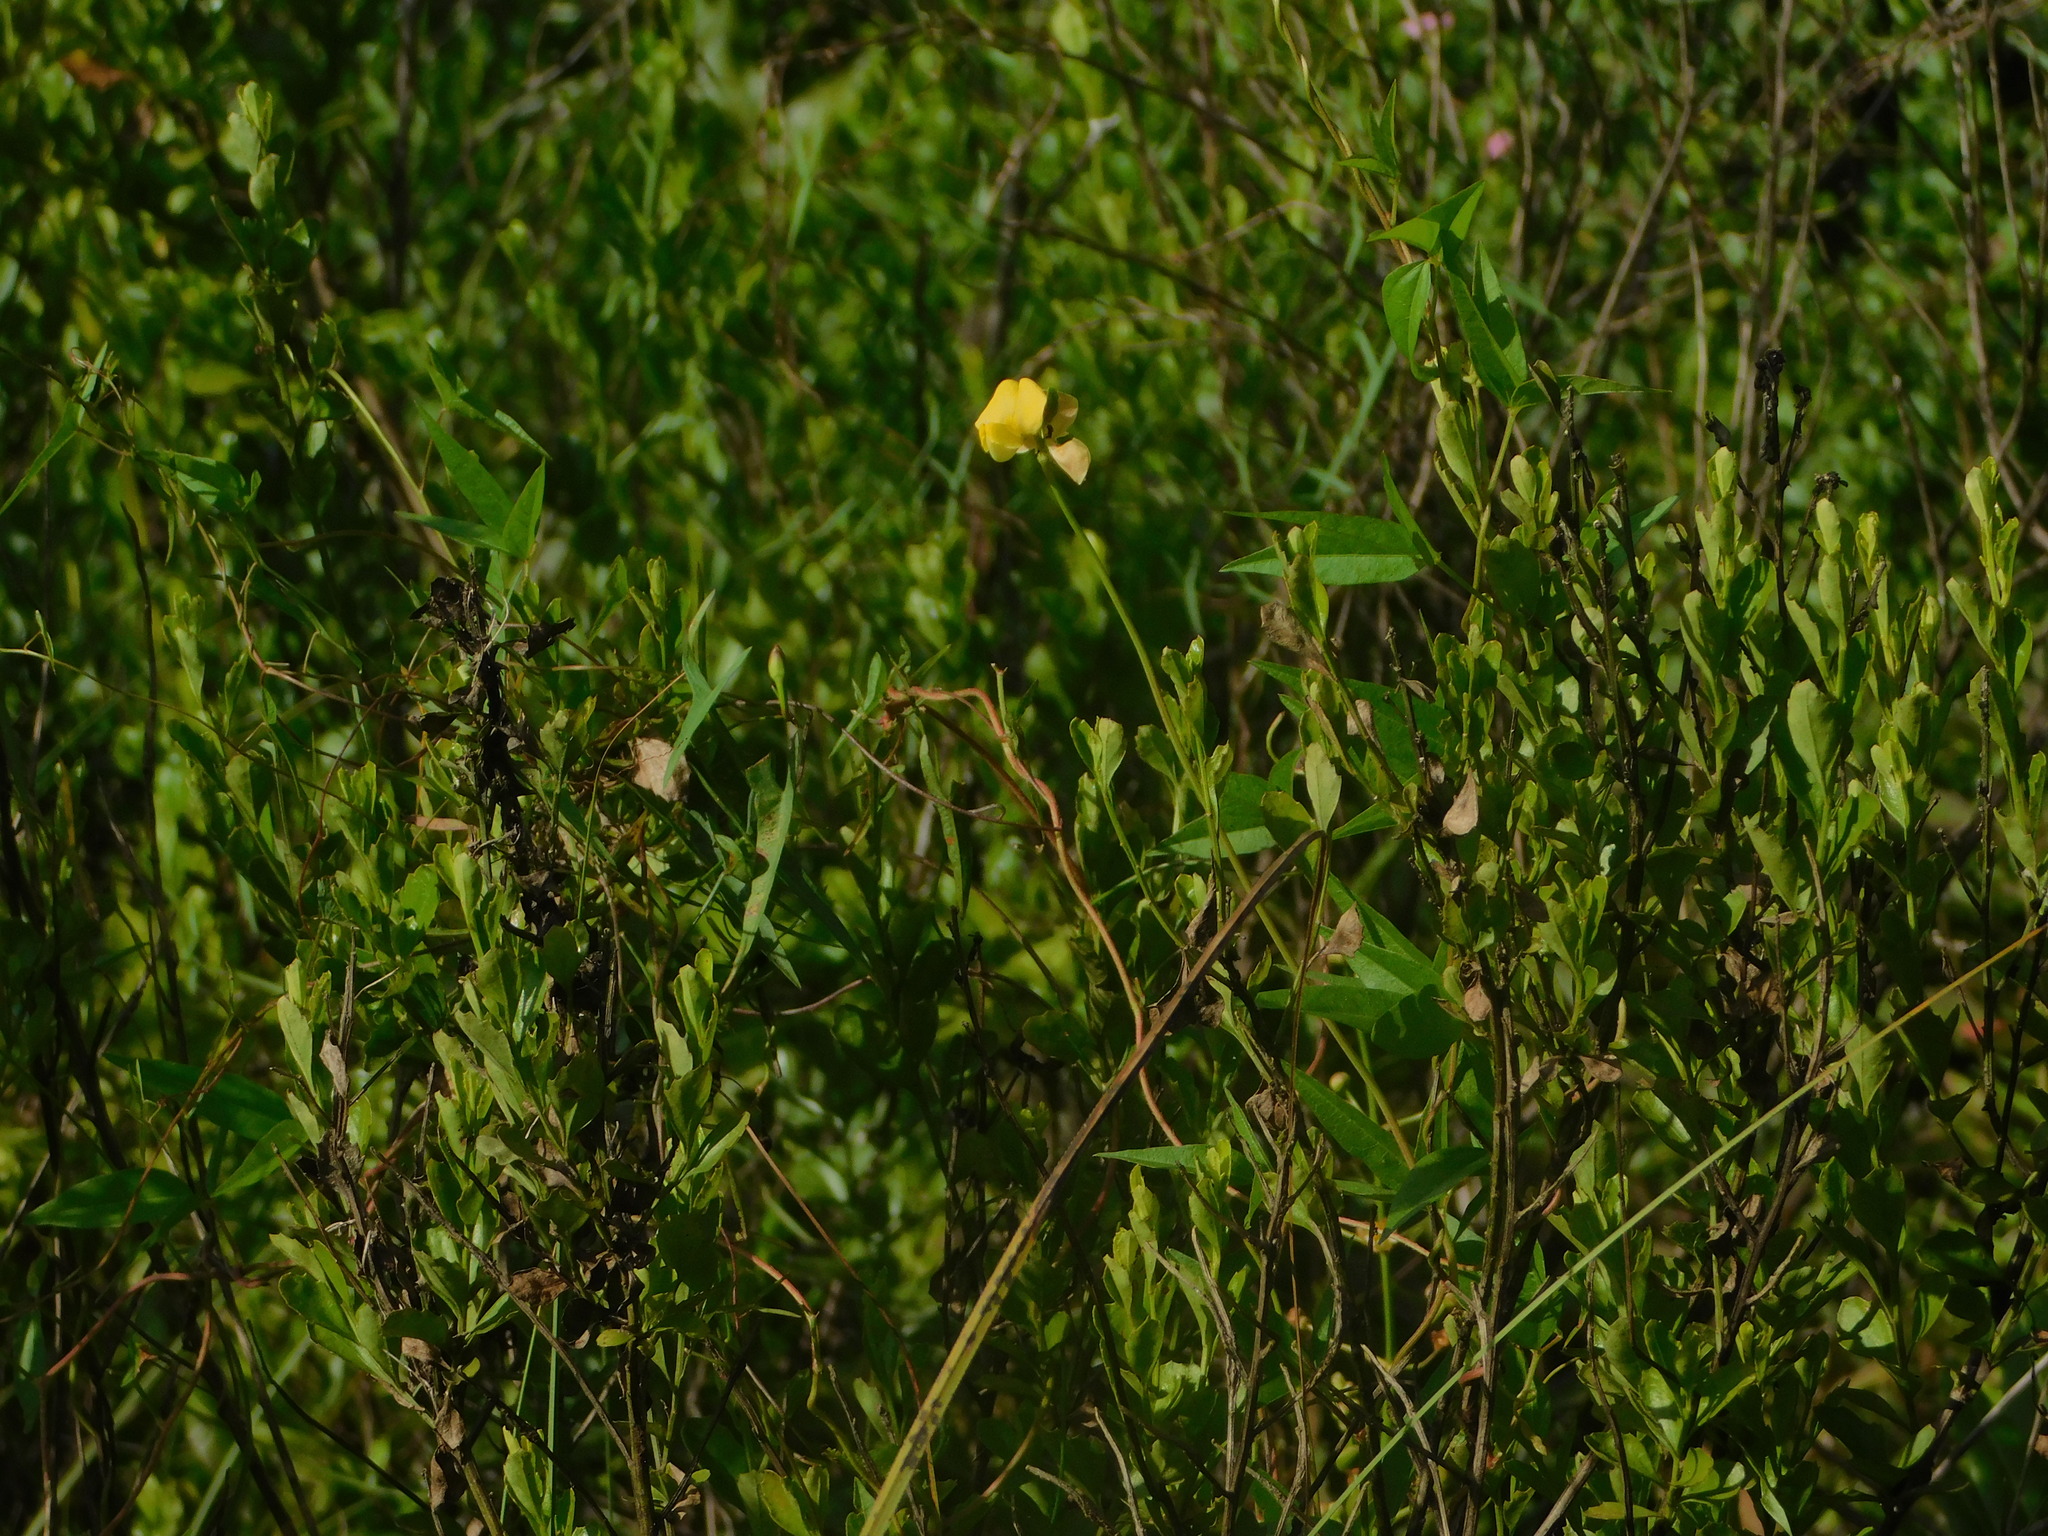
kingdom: Plantae
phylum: Tracheophyta
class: Magnoliopsida
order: Fabales
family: Fabaceae
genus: Vigna
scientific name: Vigna luteola
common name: Hairypod cowpea
